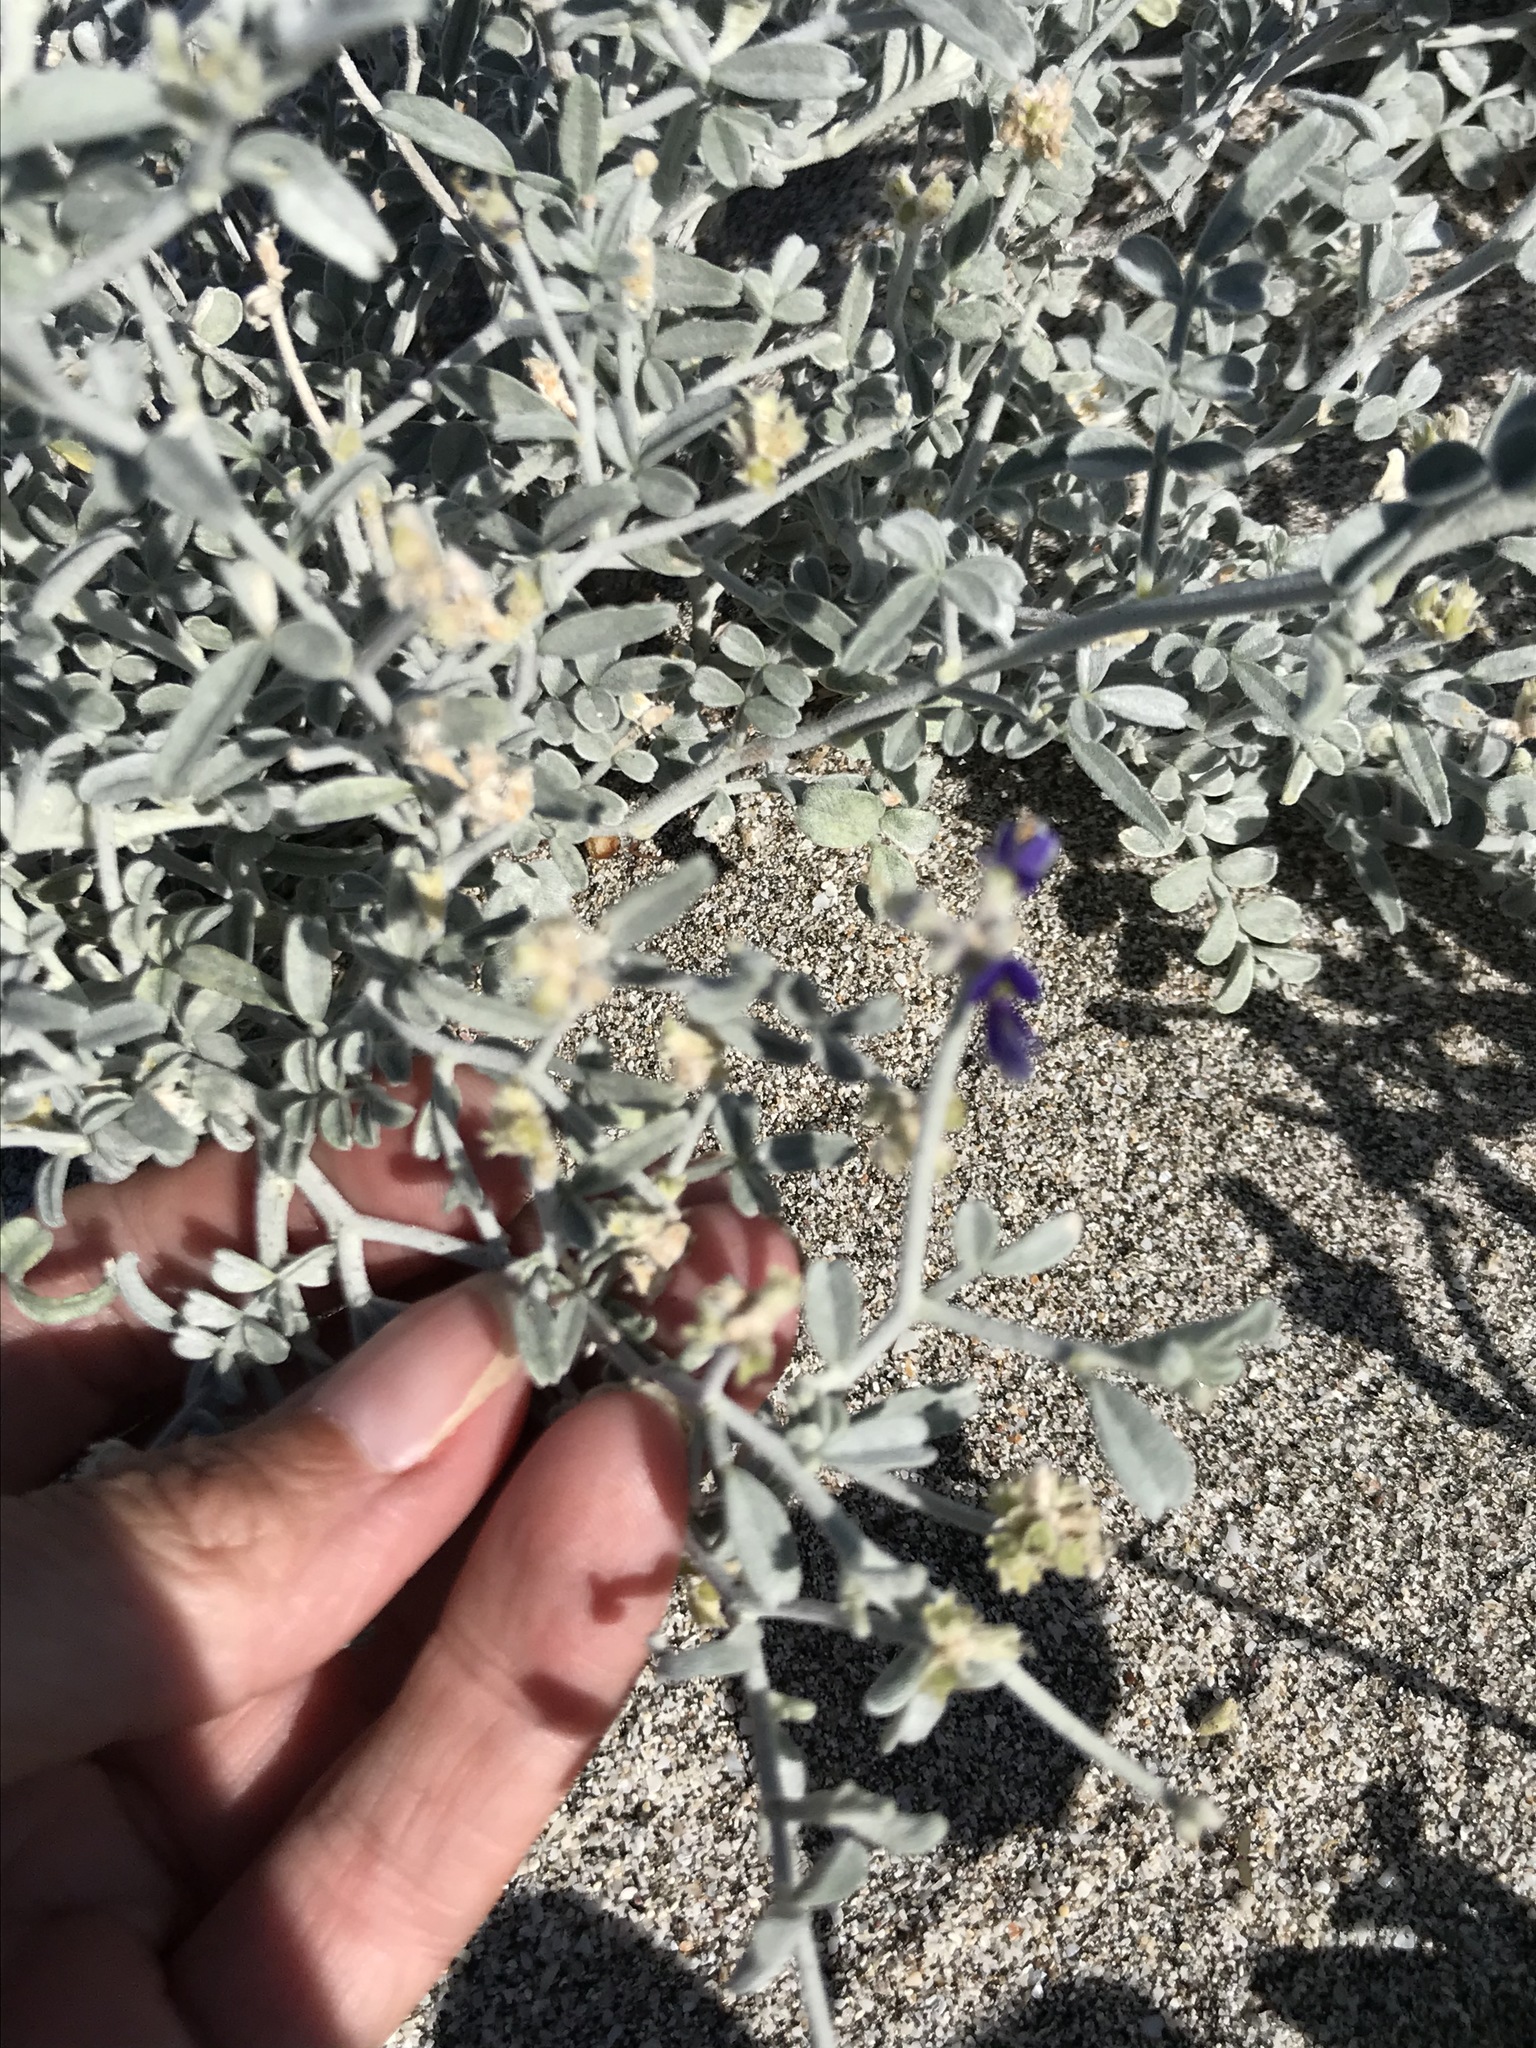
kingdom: Plantae
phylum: Tracheophyta
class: Magnoliopsida
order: Fabales
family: Fabaceae
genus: Psorothamnus
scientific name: Psorothamnus emoryi
